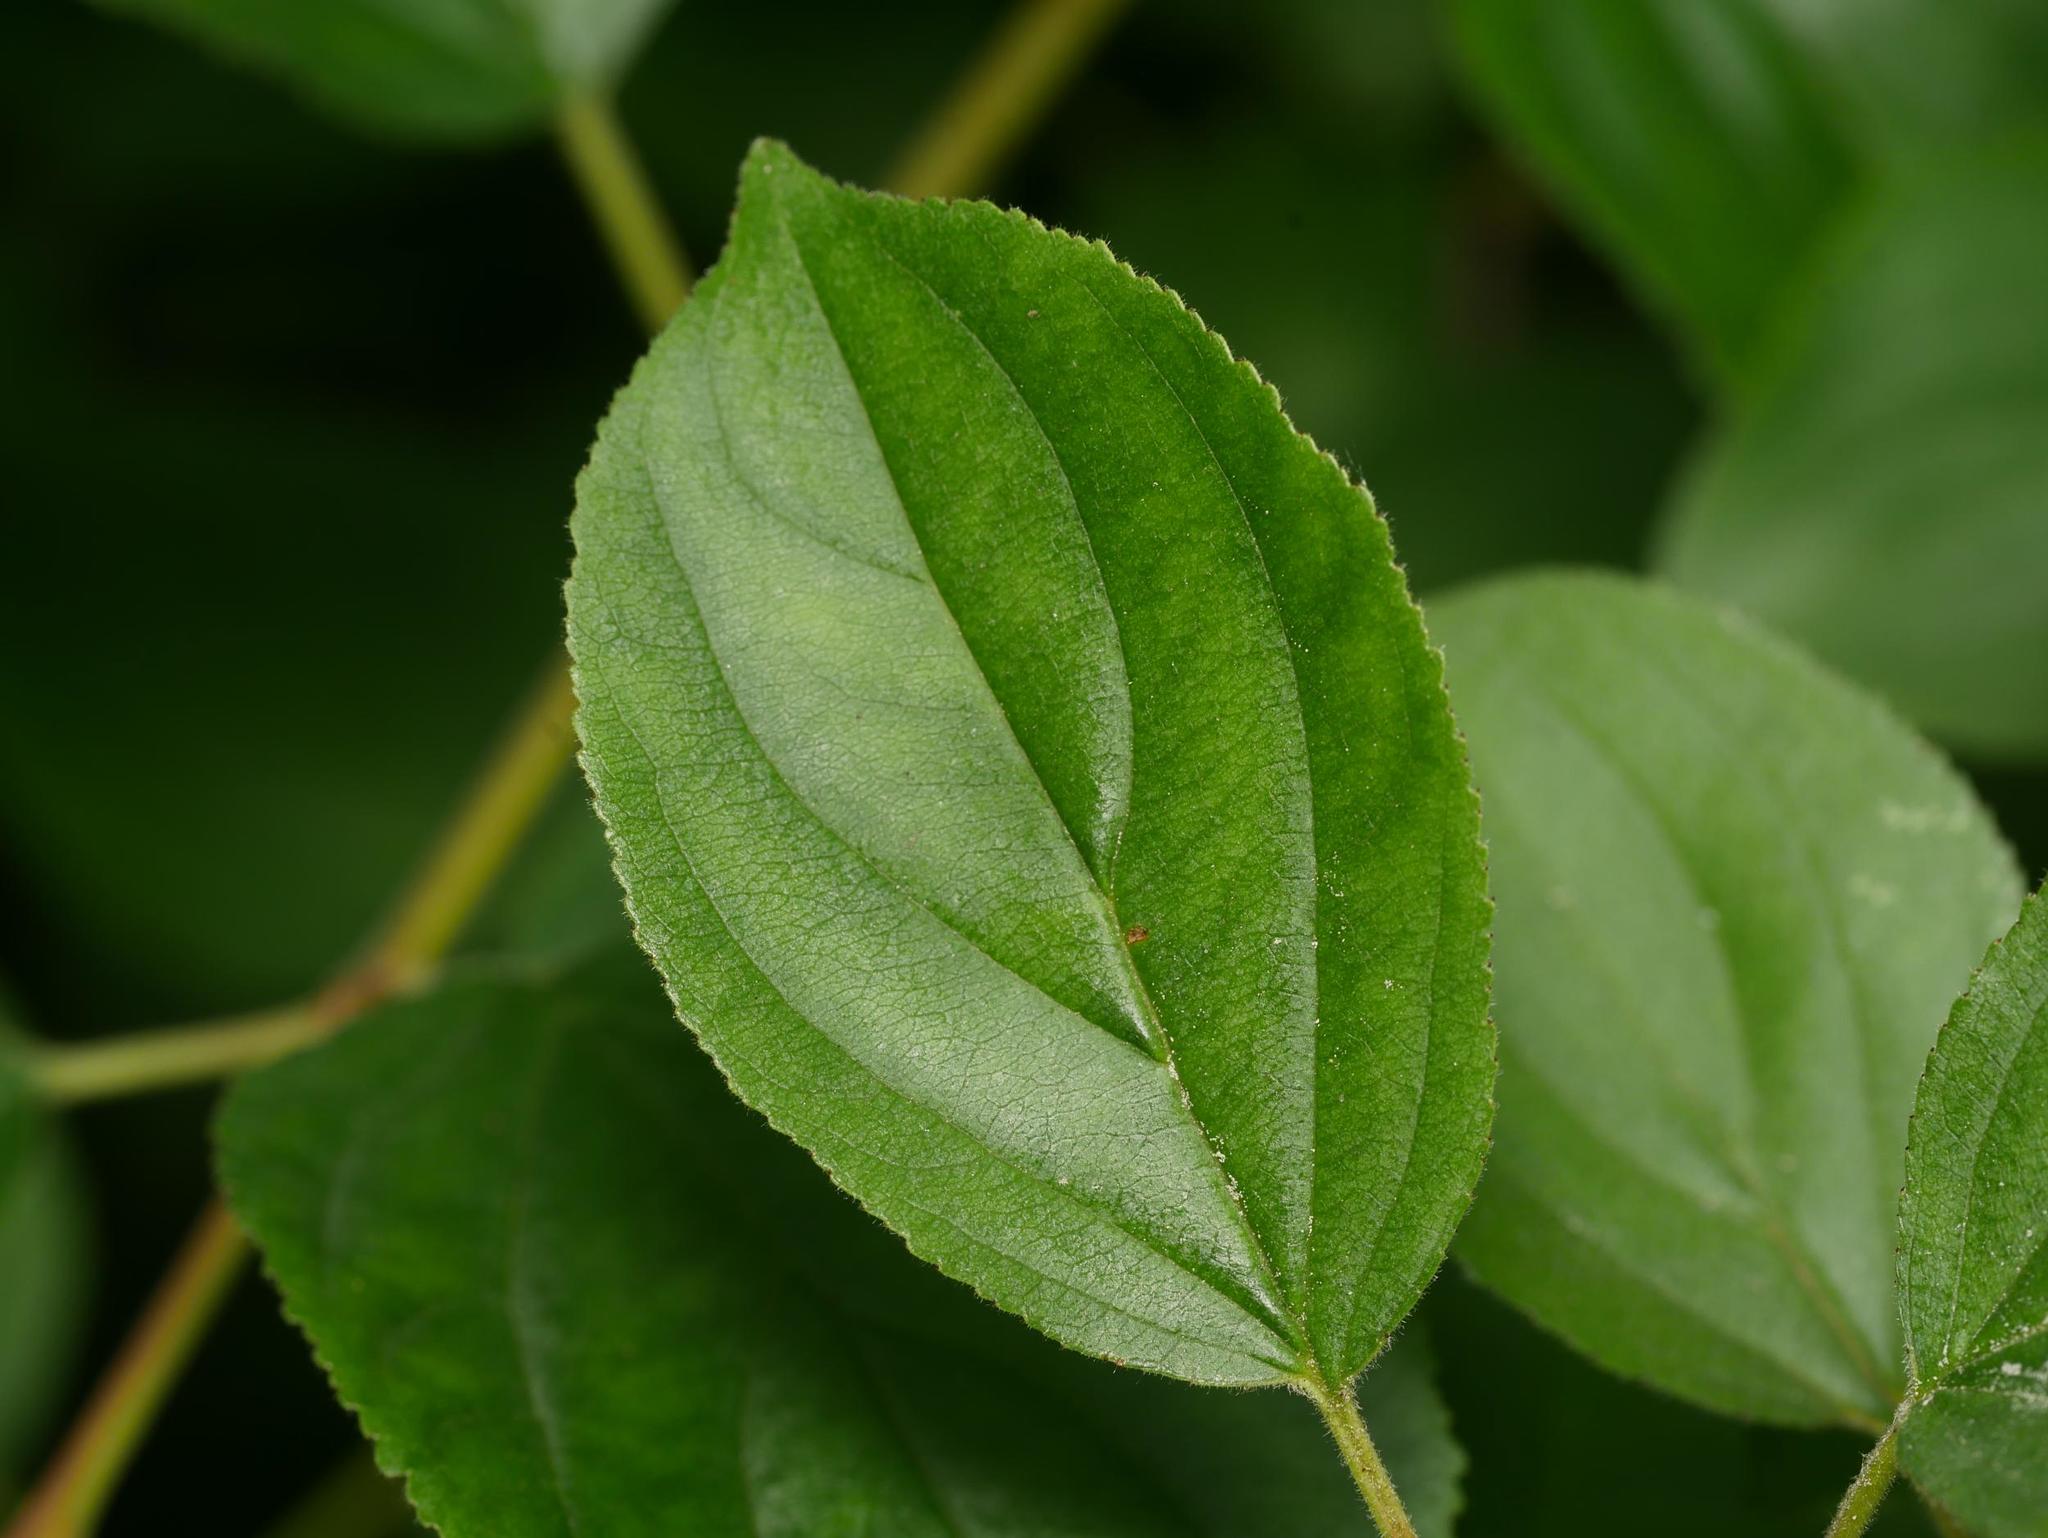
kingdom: Plantae
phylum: Tracheophyta
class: Magnoliopsida
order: Rosales
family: Rhamnaceae
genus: Rhamnus
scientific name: Rhamnus cathartica
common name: Common buckthorn
